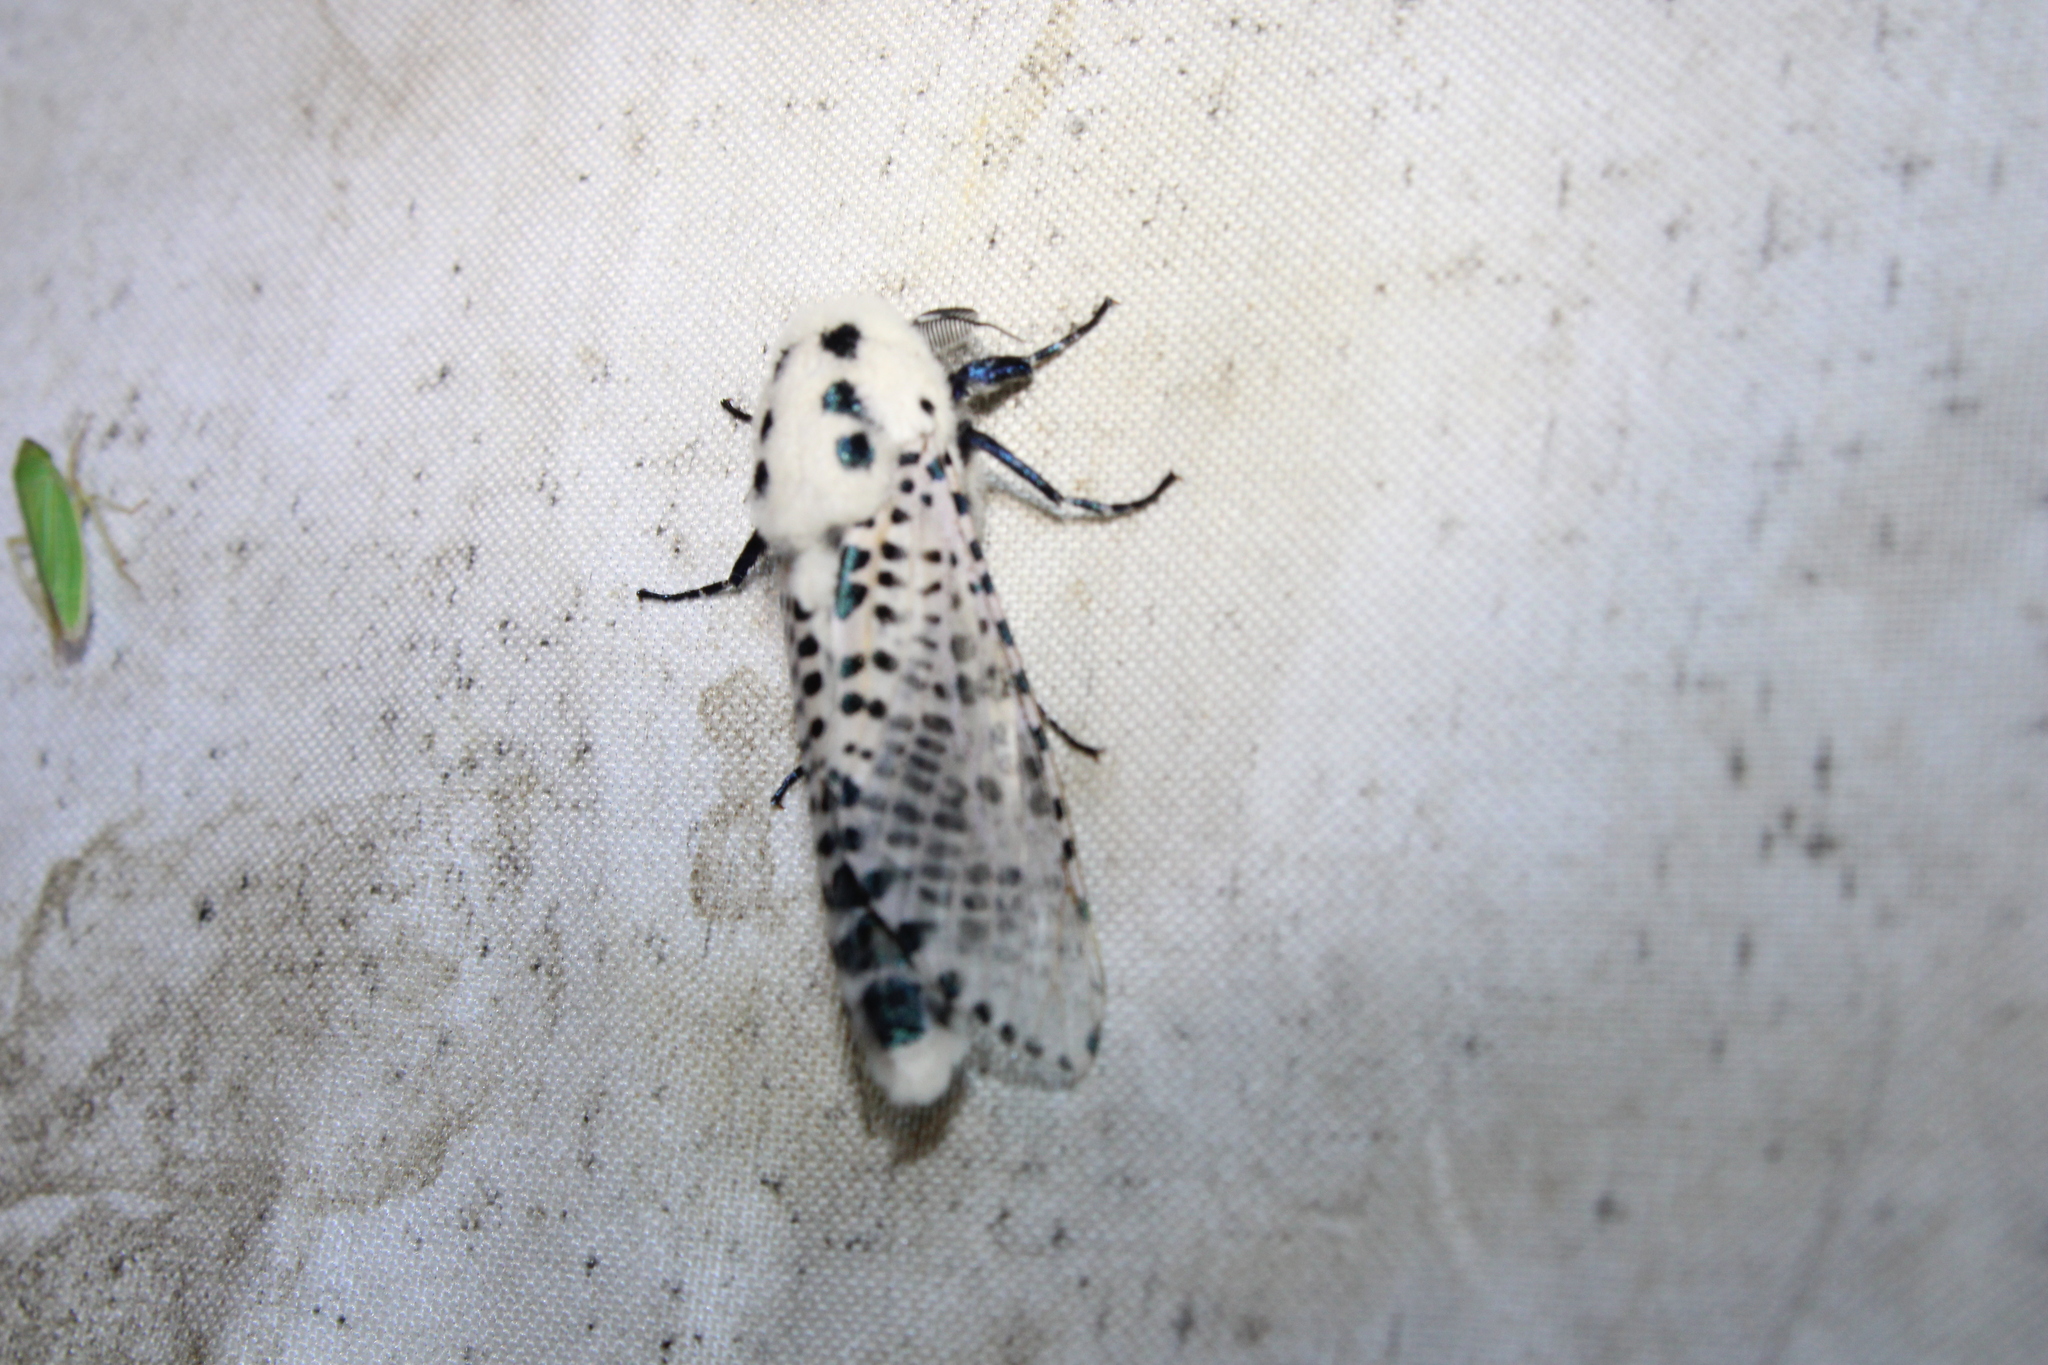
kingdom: Animalia
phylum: Arthropoda
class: Insecta
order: Lepidoptera
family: Cossidae
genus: Zeuzera
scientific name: Zeuzera pyrina
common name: Leopard moth
